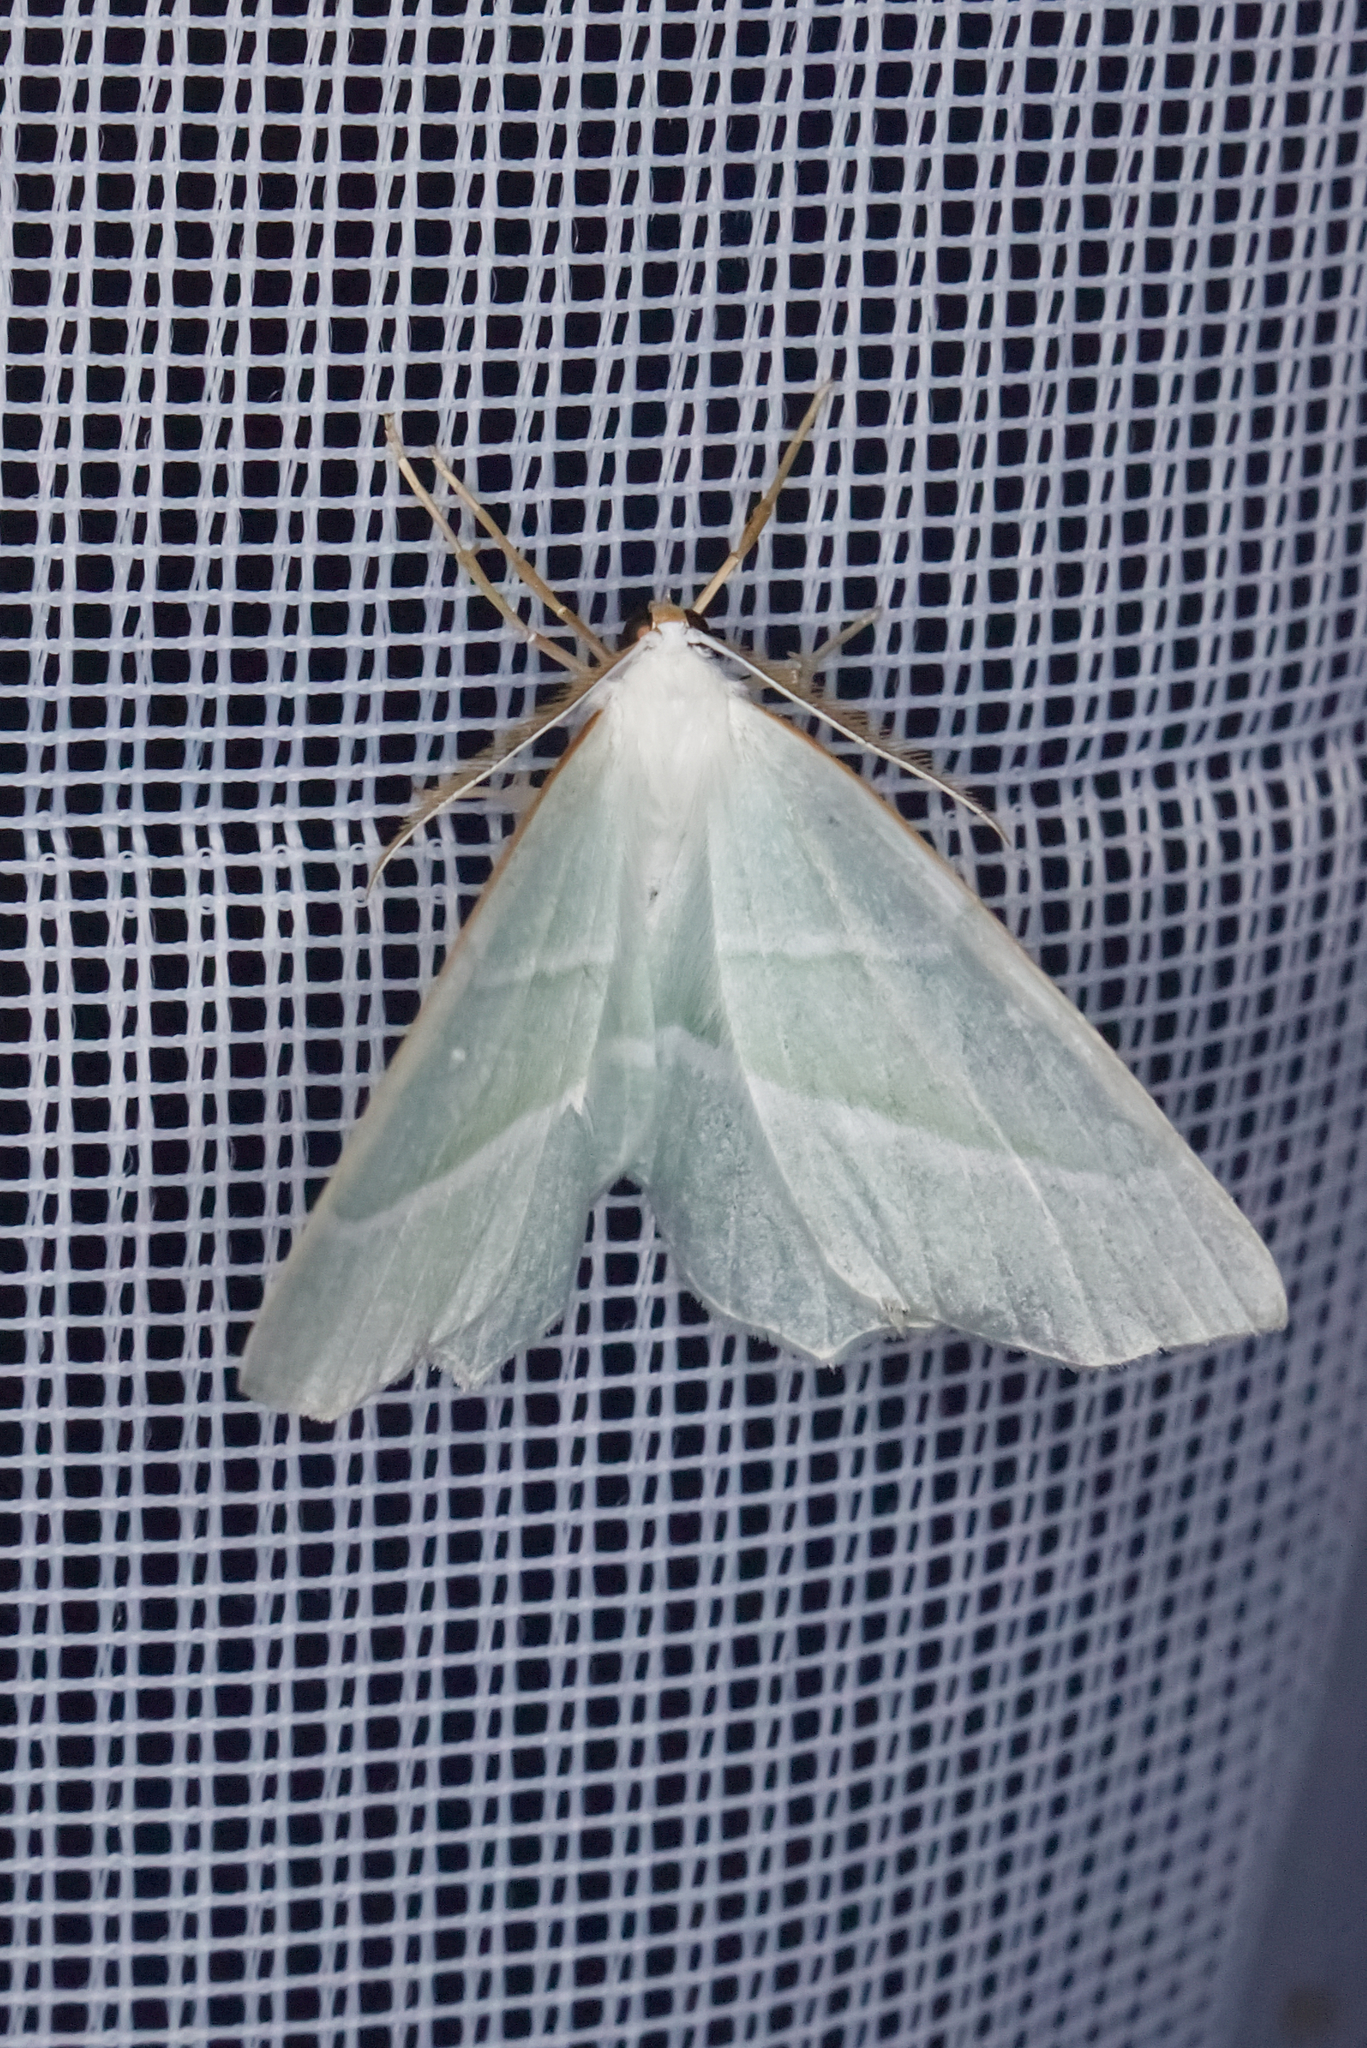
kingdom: Animalia
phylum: Arthropoda
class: Insecta
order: Lepidoptera
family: Geometridae
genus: Campaea
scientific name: Campaea margaritaria
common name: Light emerald
